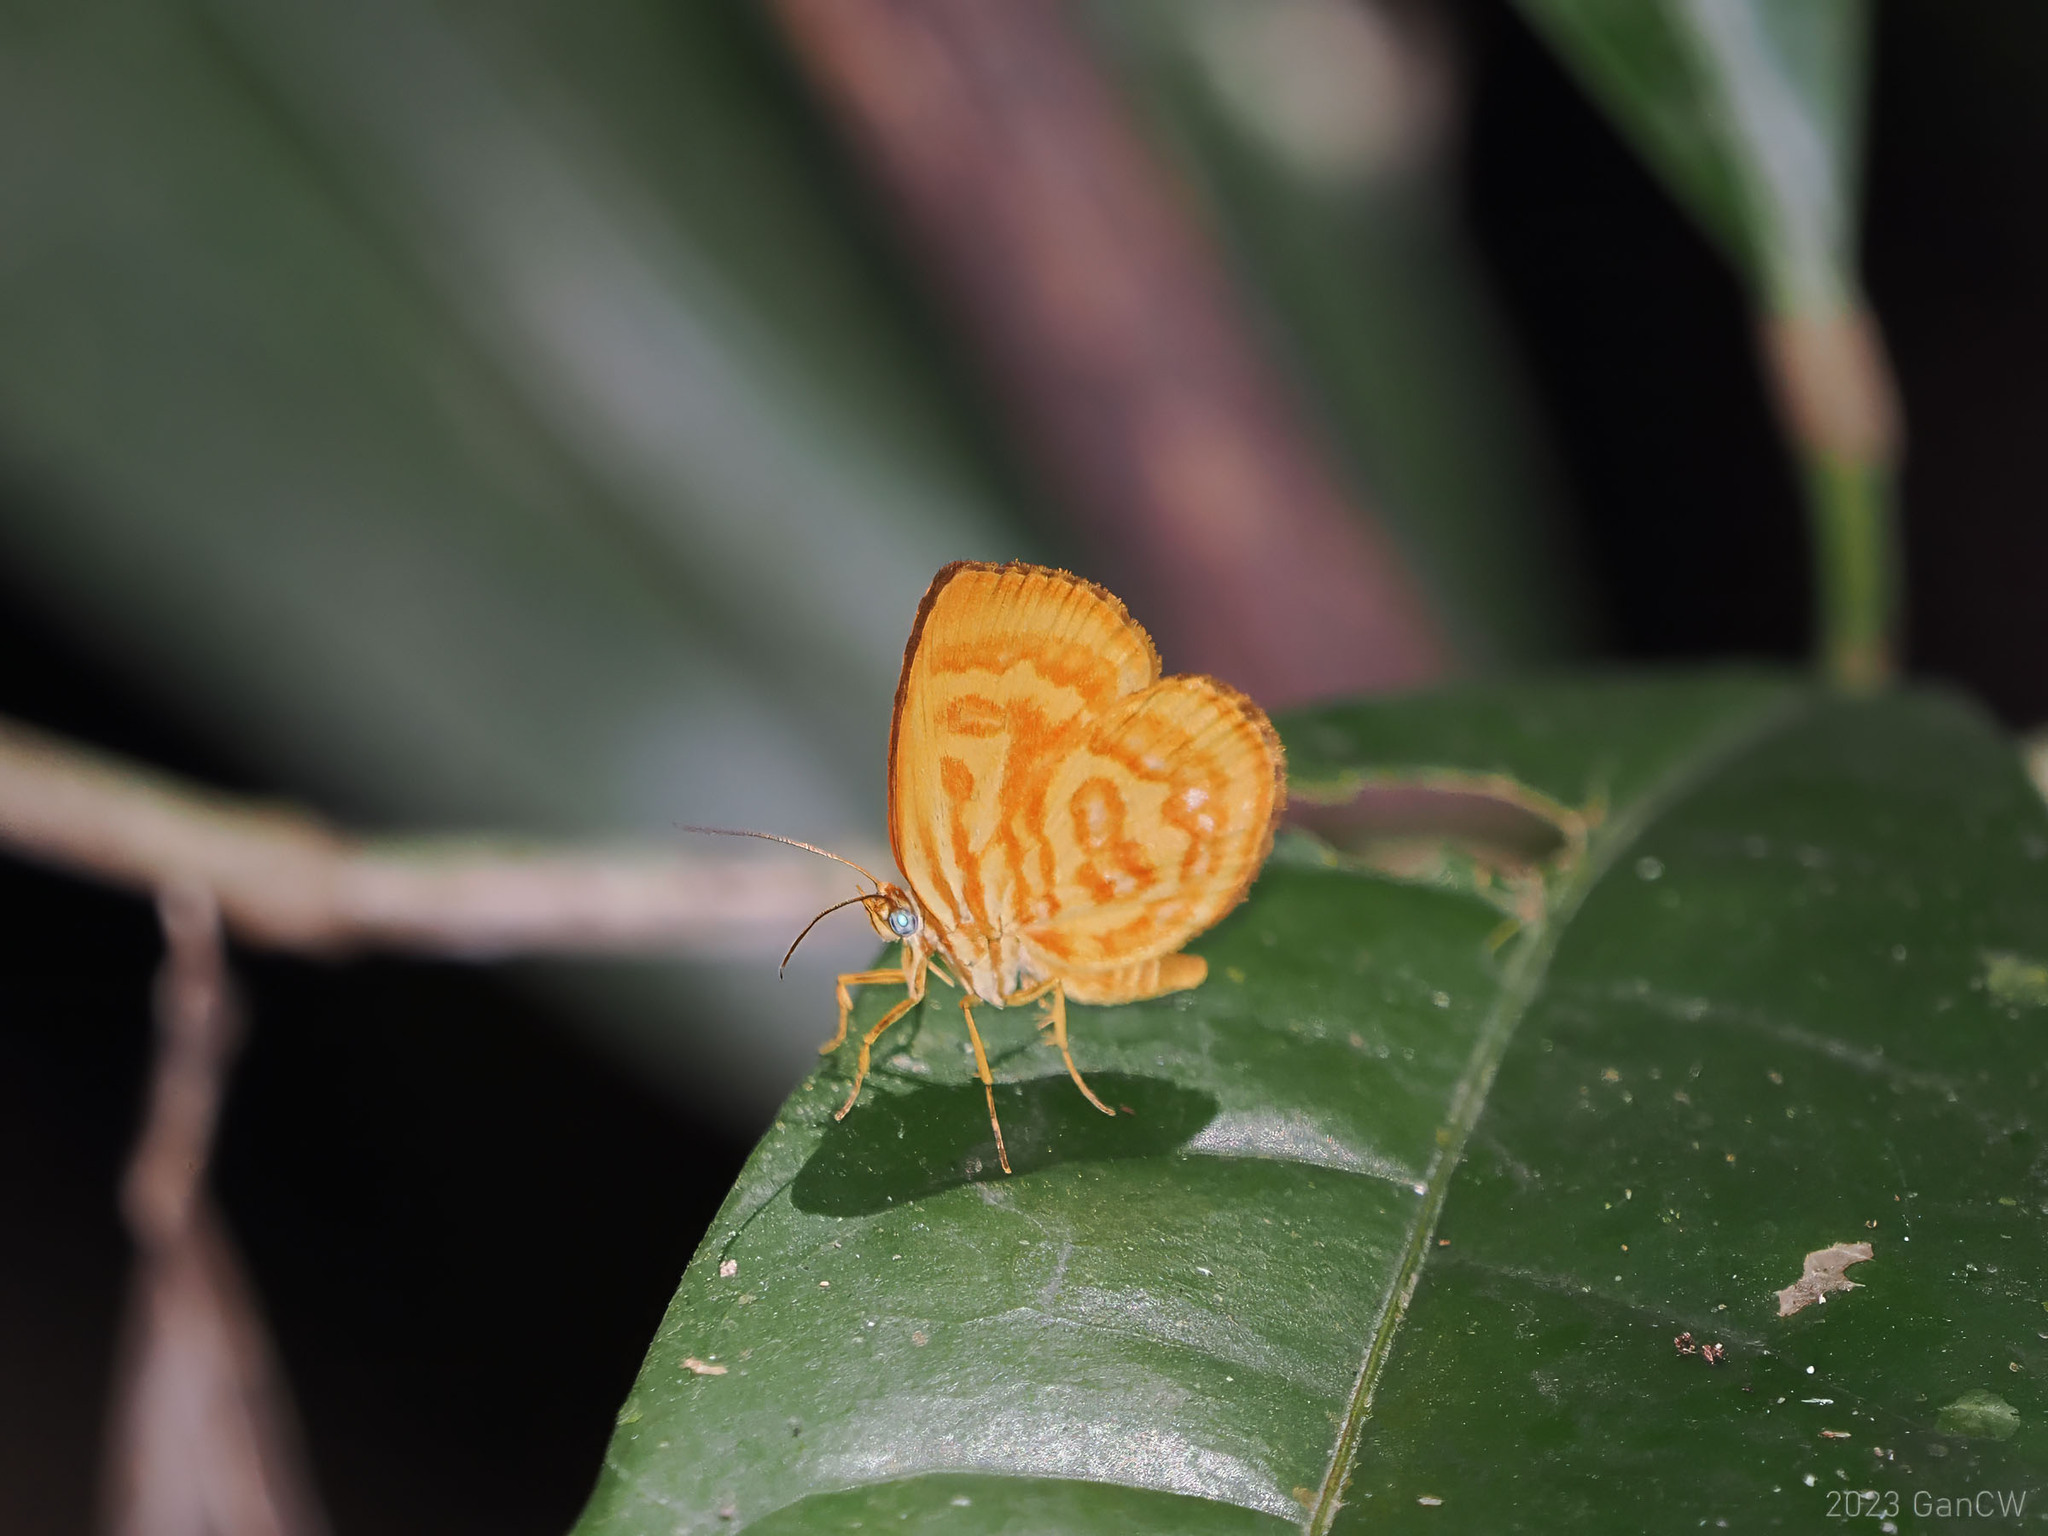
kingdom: Animalia
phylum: Arthropoda
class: Insecta
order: Lepidoptera
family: Callidulidae
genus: Comella
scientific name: Comella laetifica
